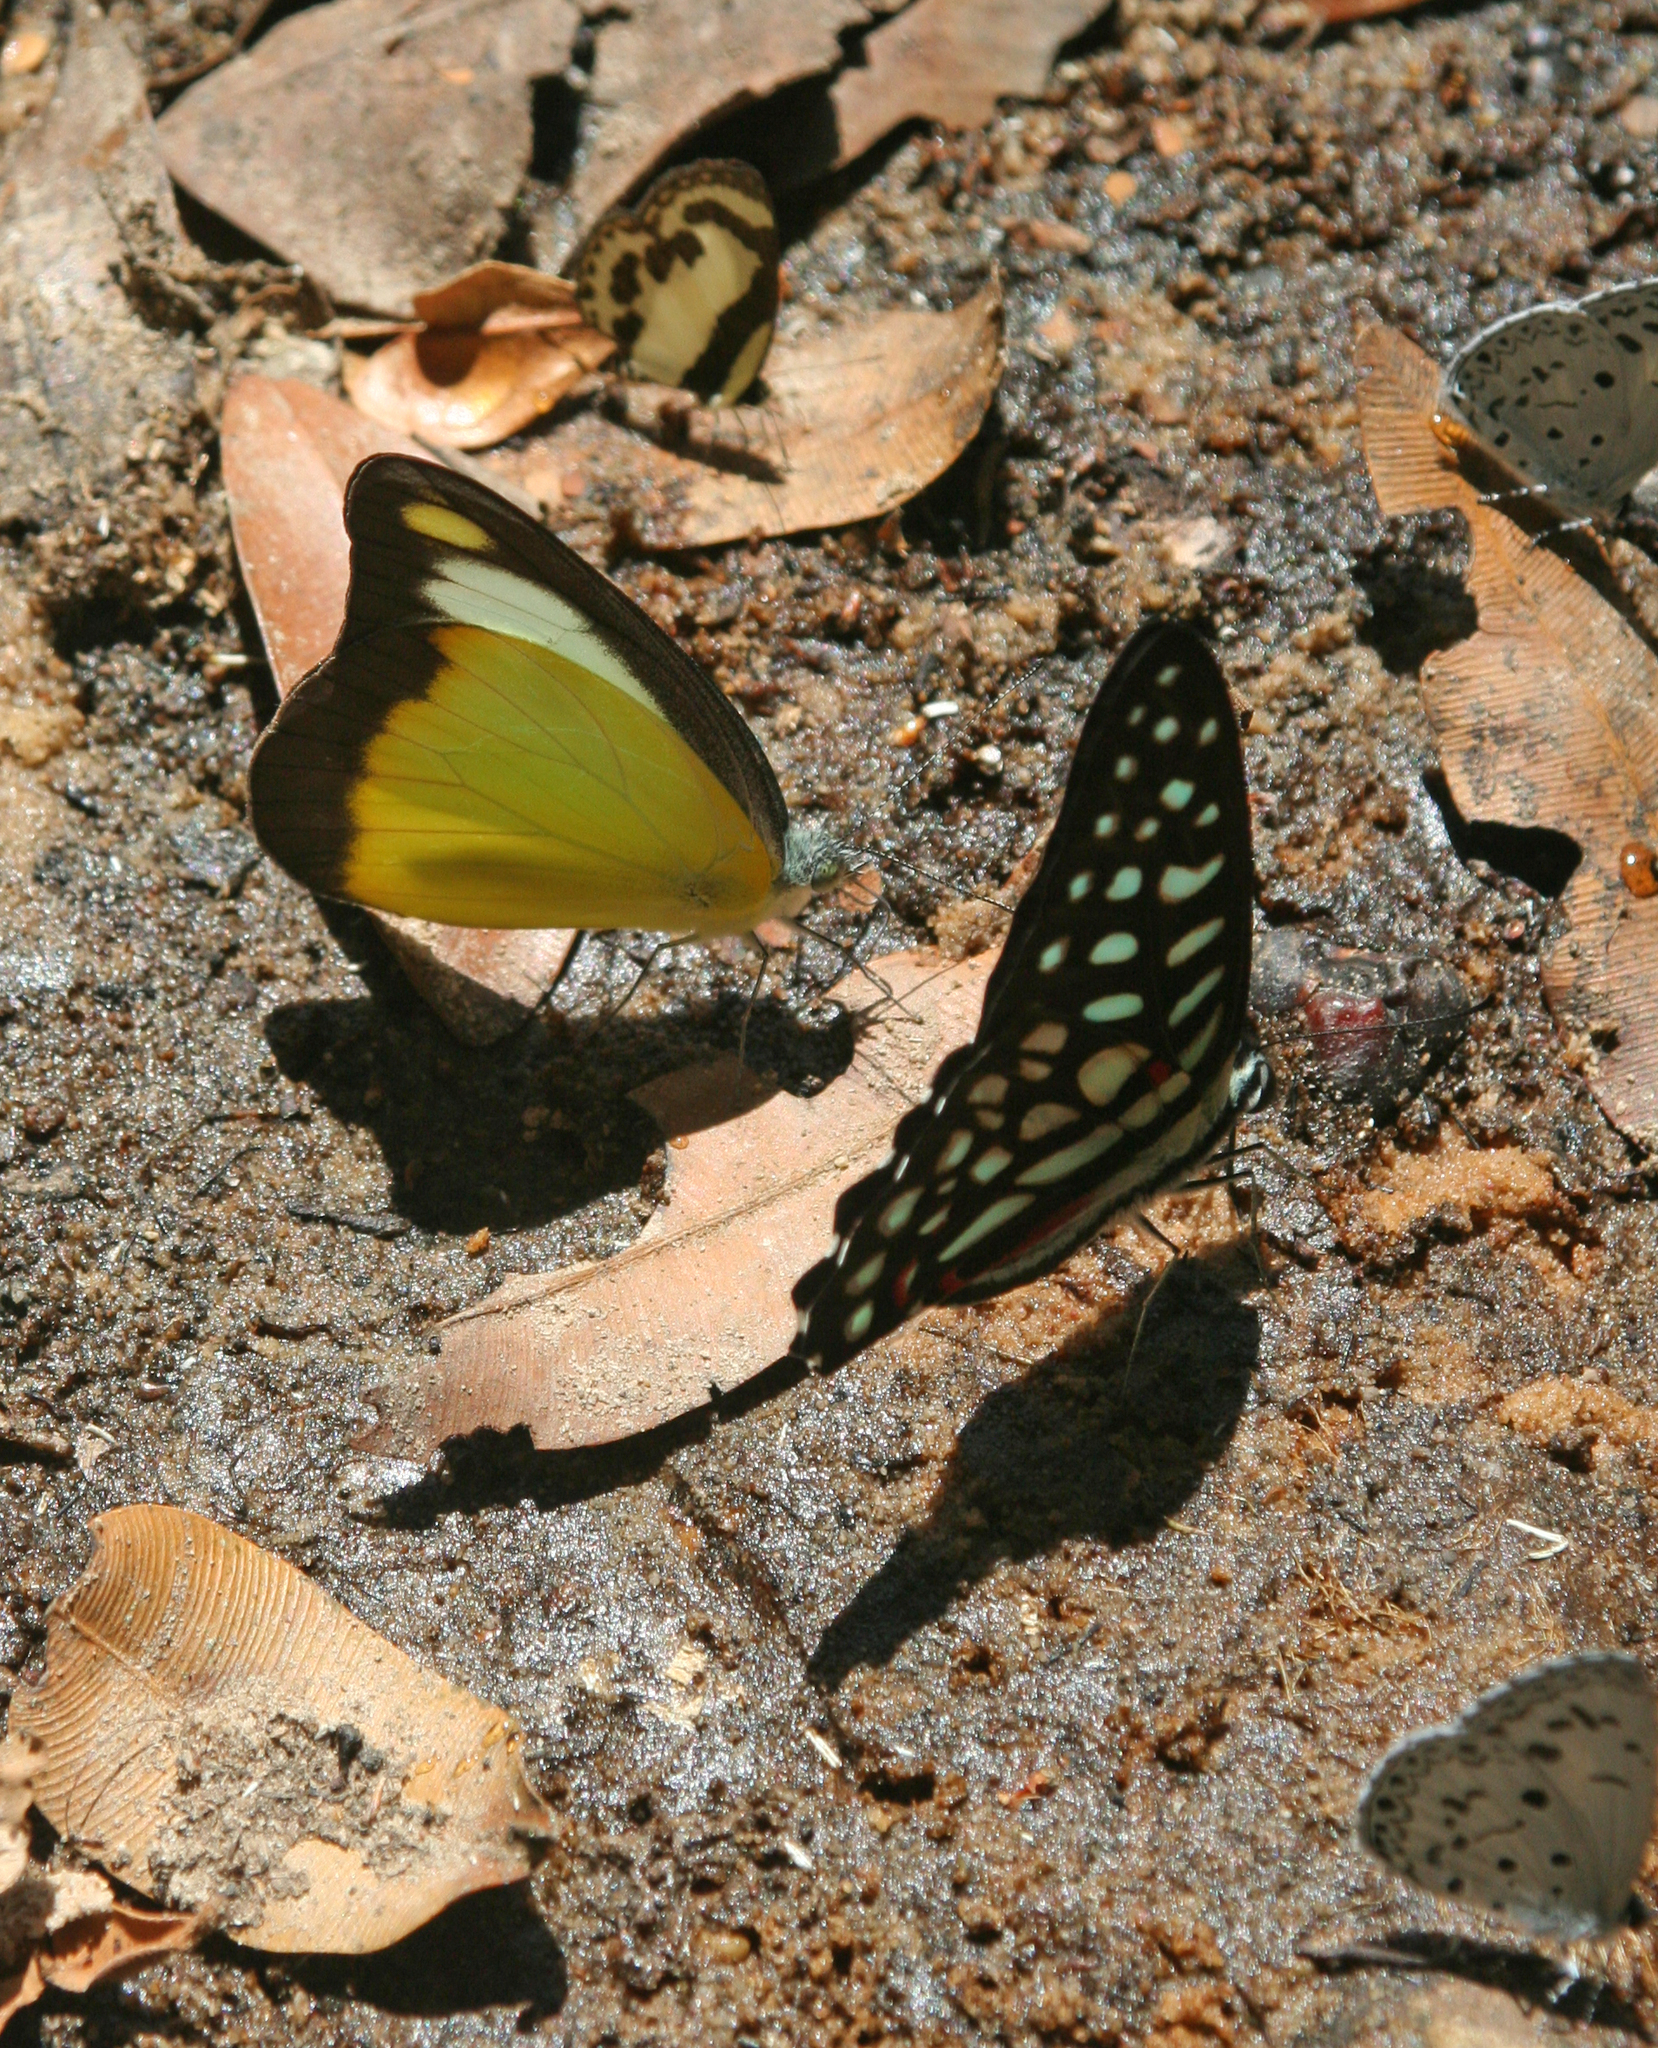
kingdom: Animalia
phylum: Arthropoda
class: Insecta
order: Lepidoptera
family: Papilionidae
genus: Graphium
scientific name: Graphium arycles
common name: Spotted jay
